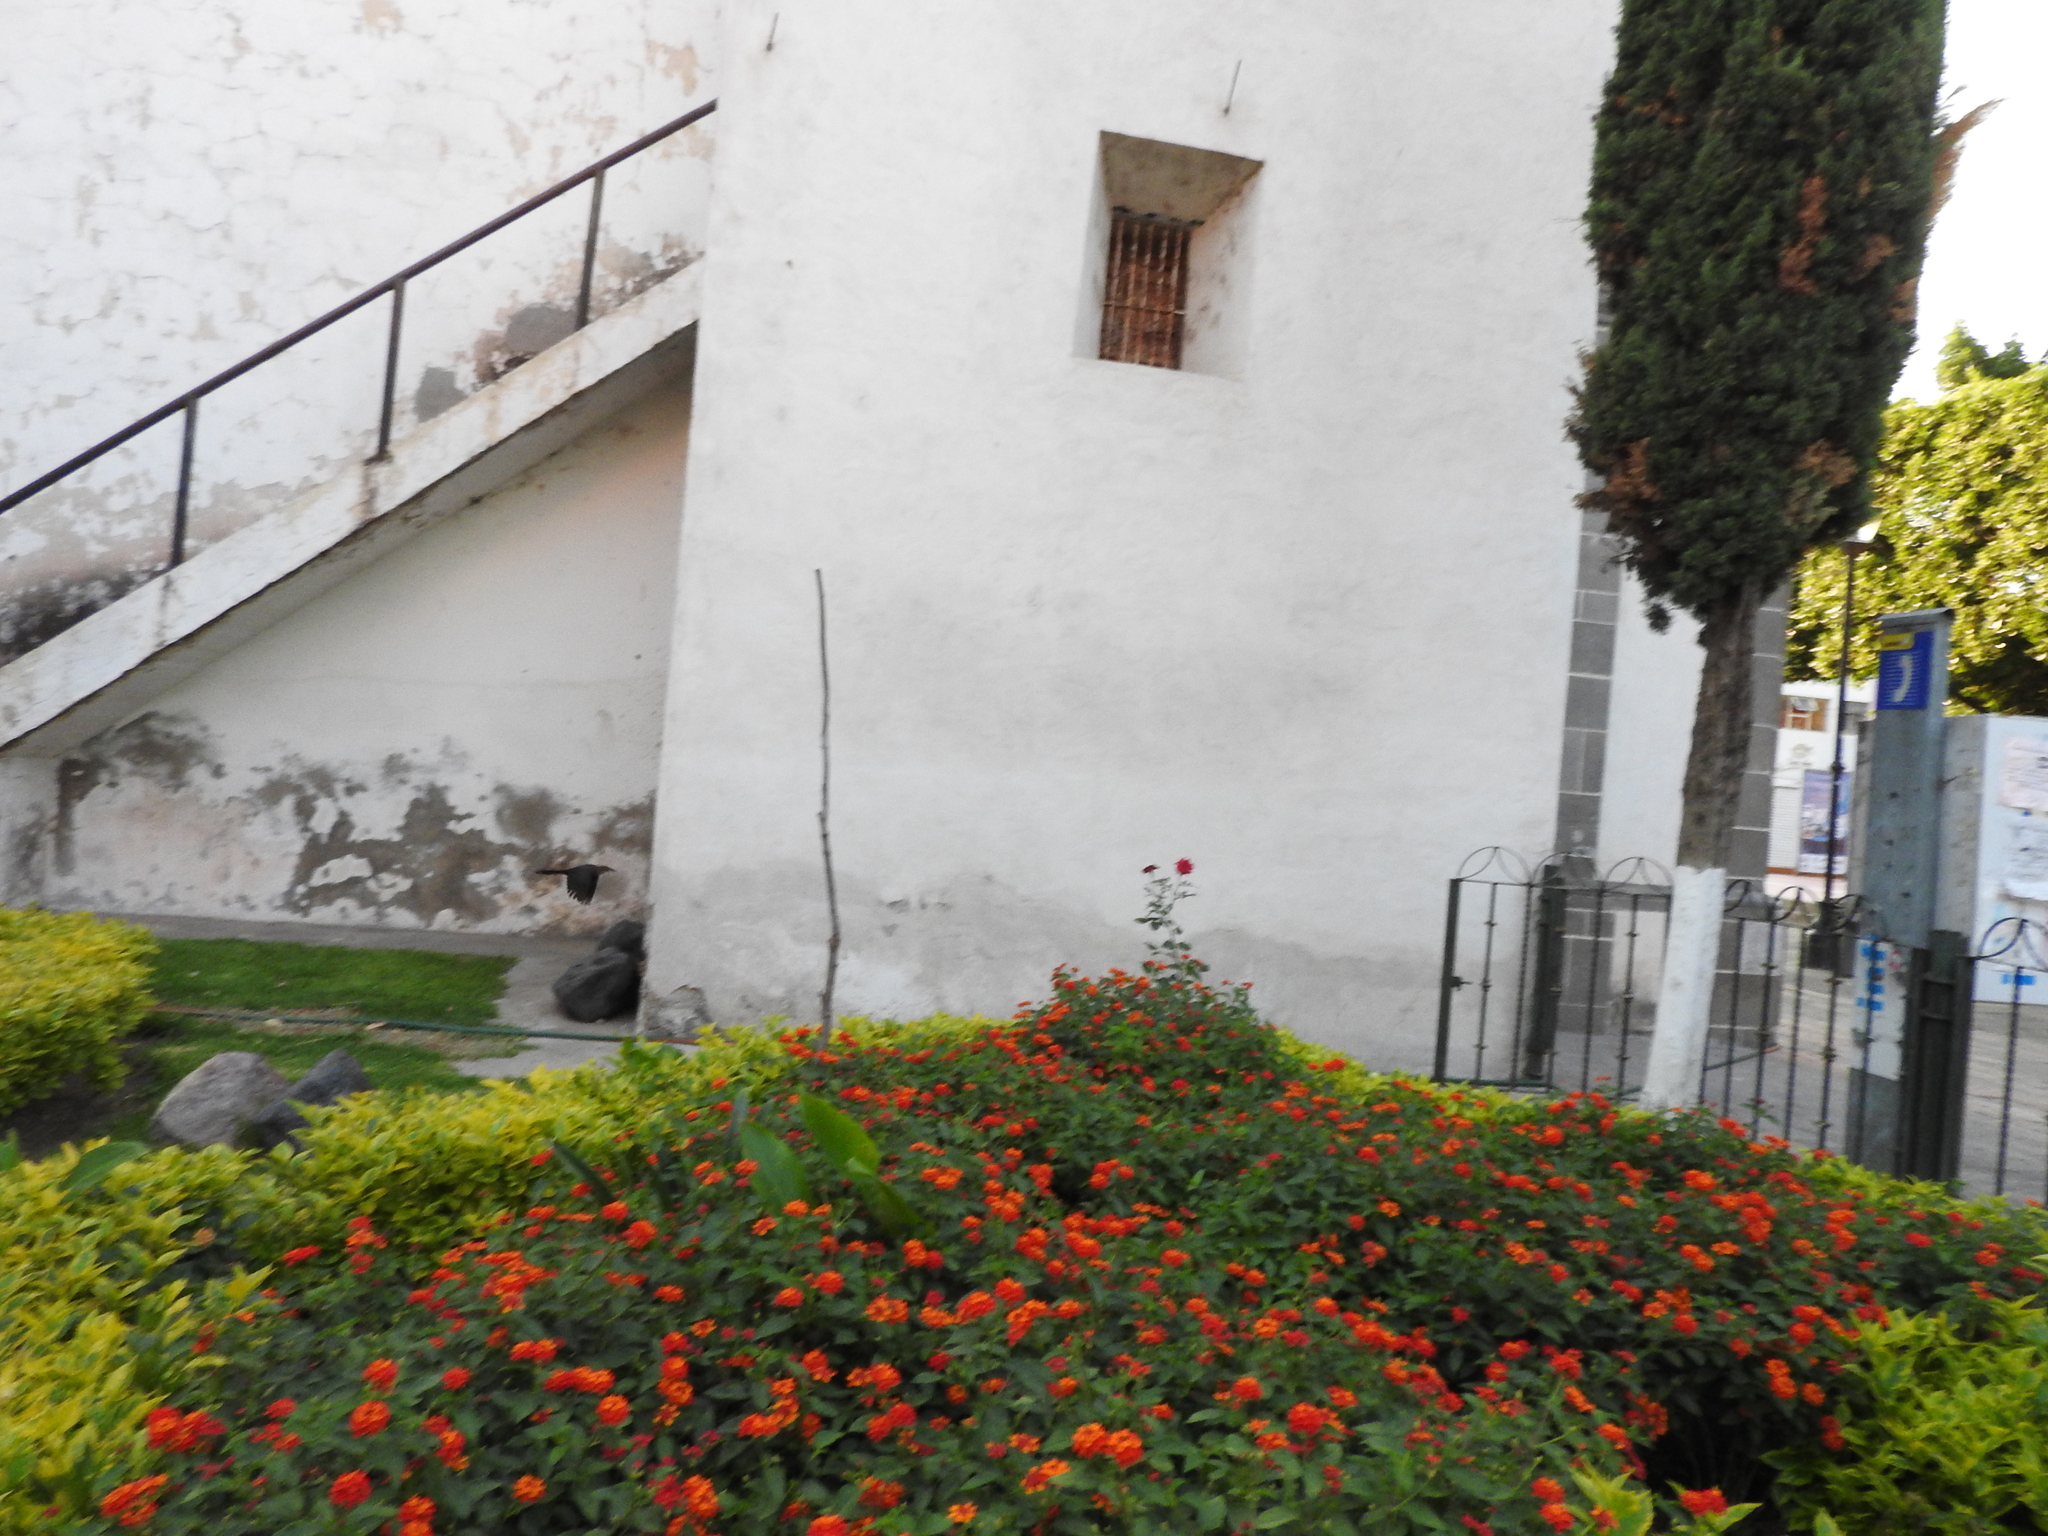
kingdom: Animalia
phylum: Chordata
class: Aves
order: Passeriformes
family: Icteridae
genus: Quiscalus
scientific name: Quiscalus mexicanus
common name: Great-tailed grackle
